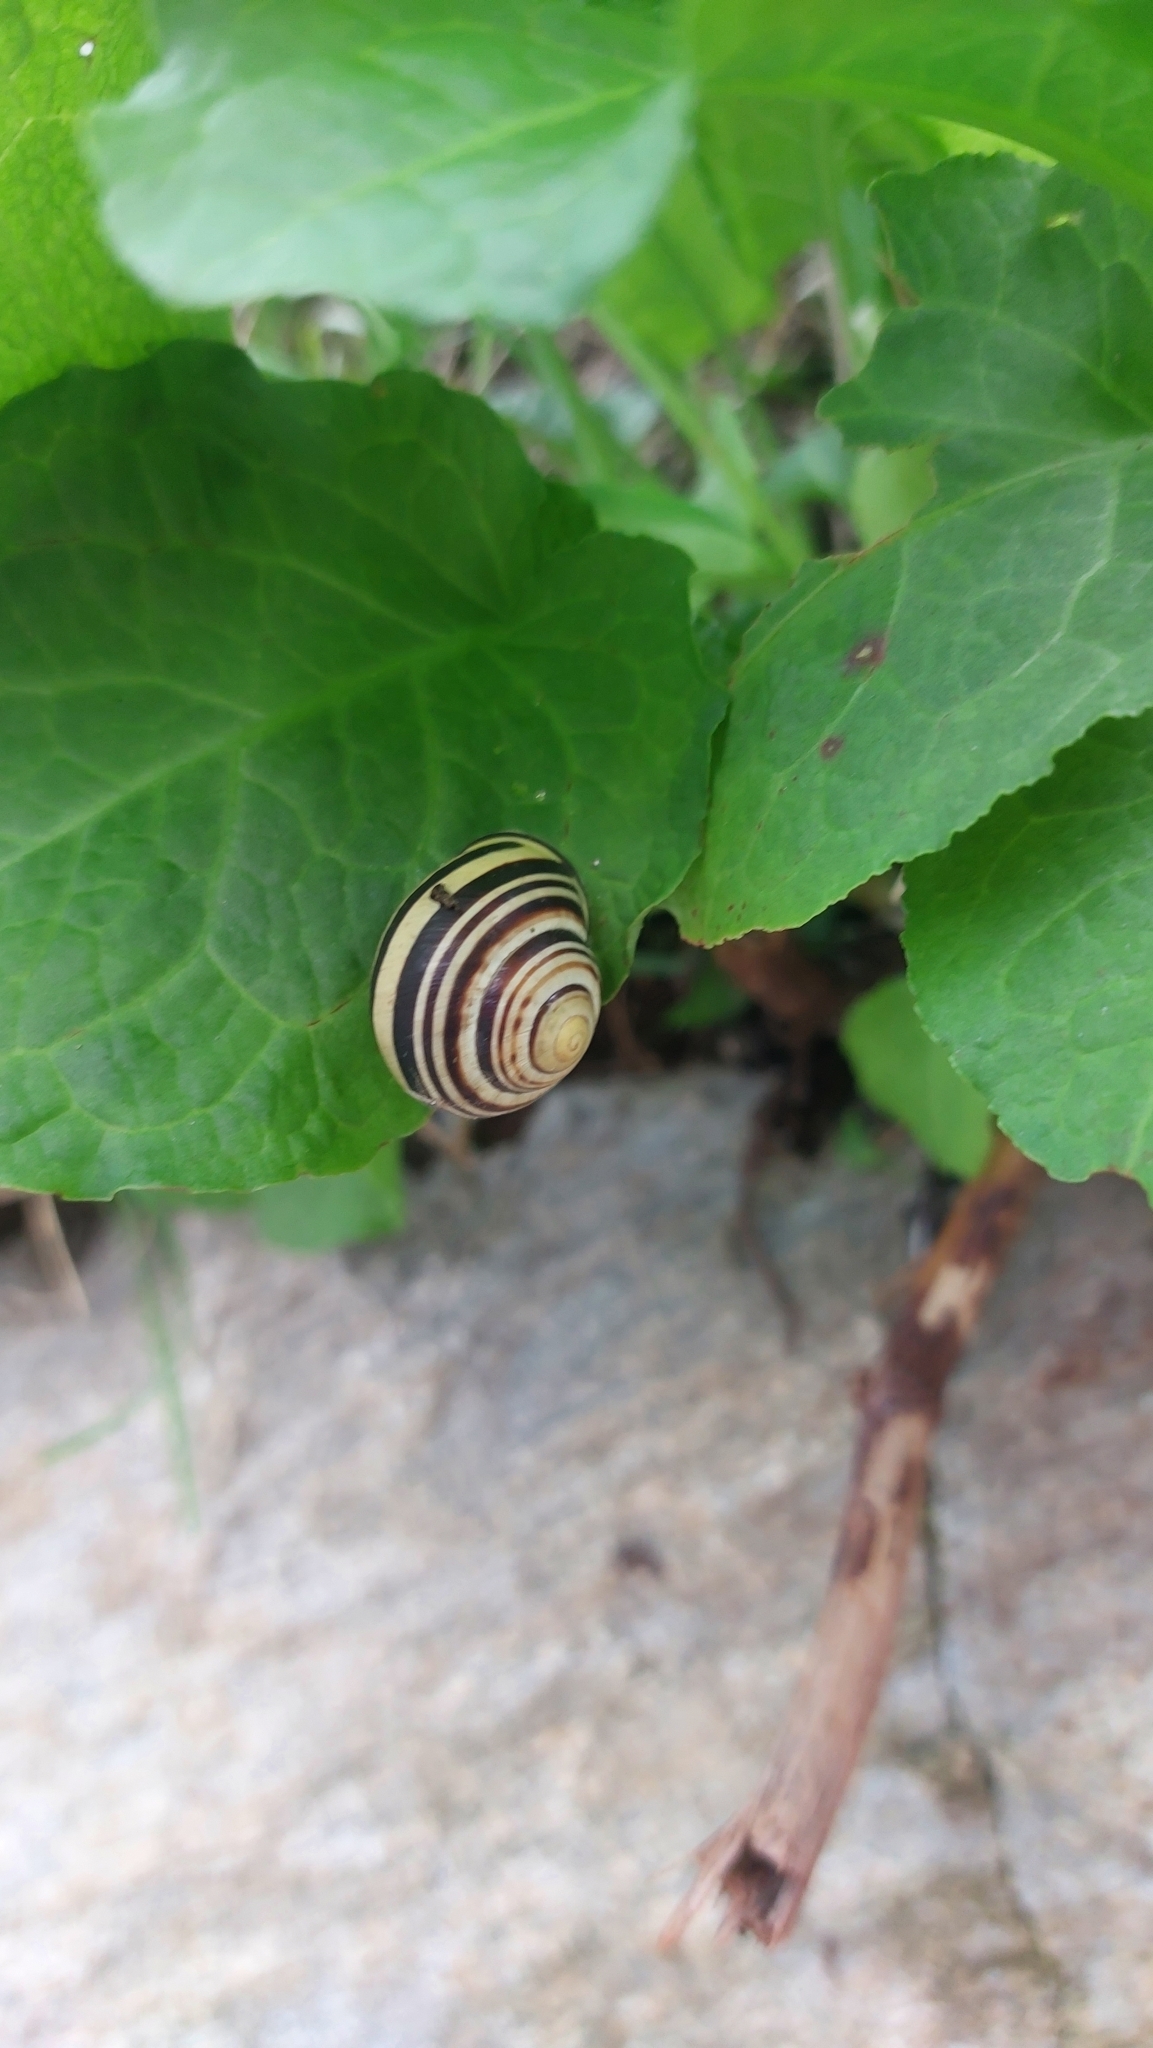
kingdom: Animalia
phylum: Mollusca
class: Gastropoda
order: Stylommatophora
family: Helicidae
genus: Cepaea
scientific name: Cepaea nemoralis
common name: Grovesnail
